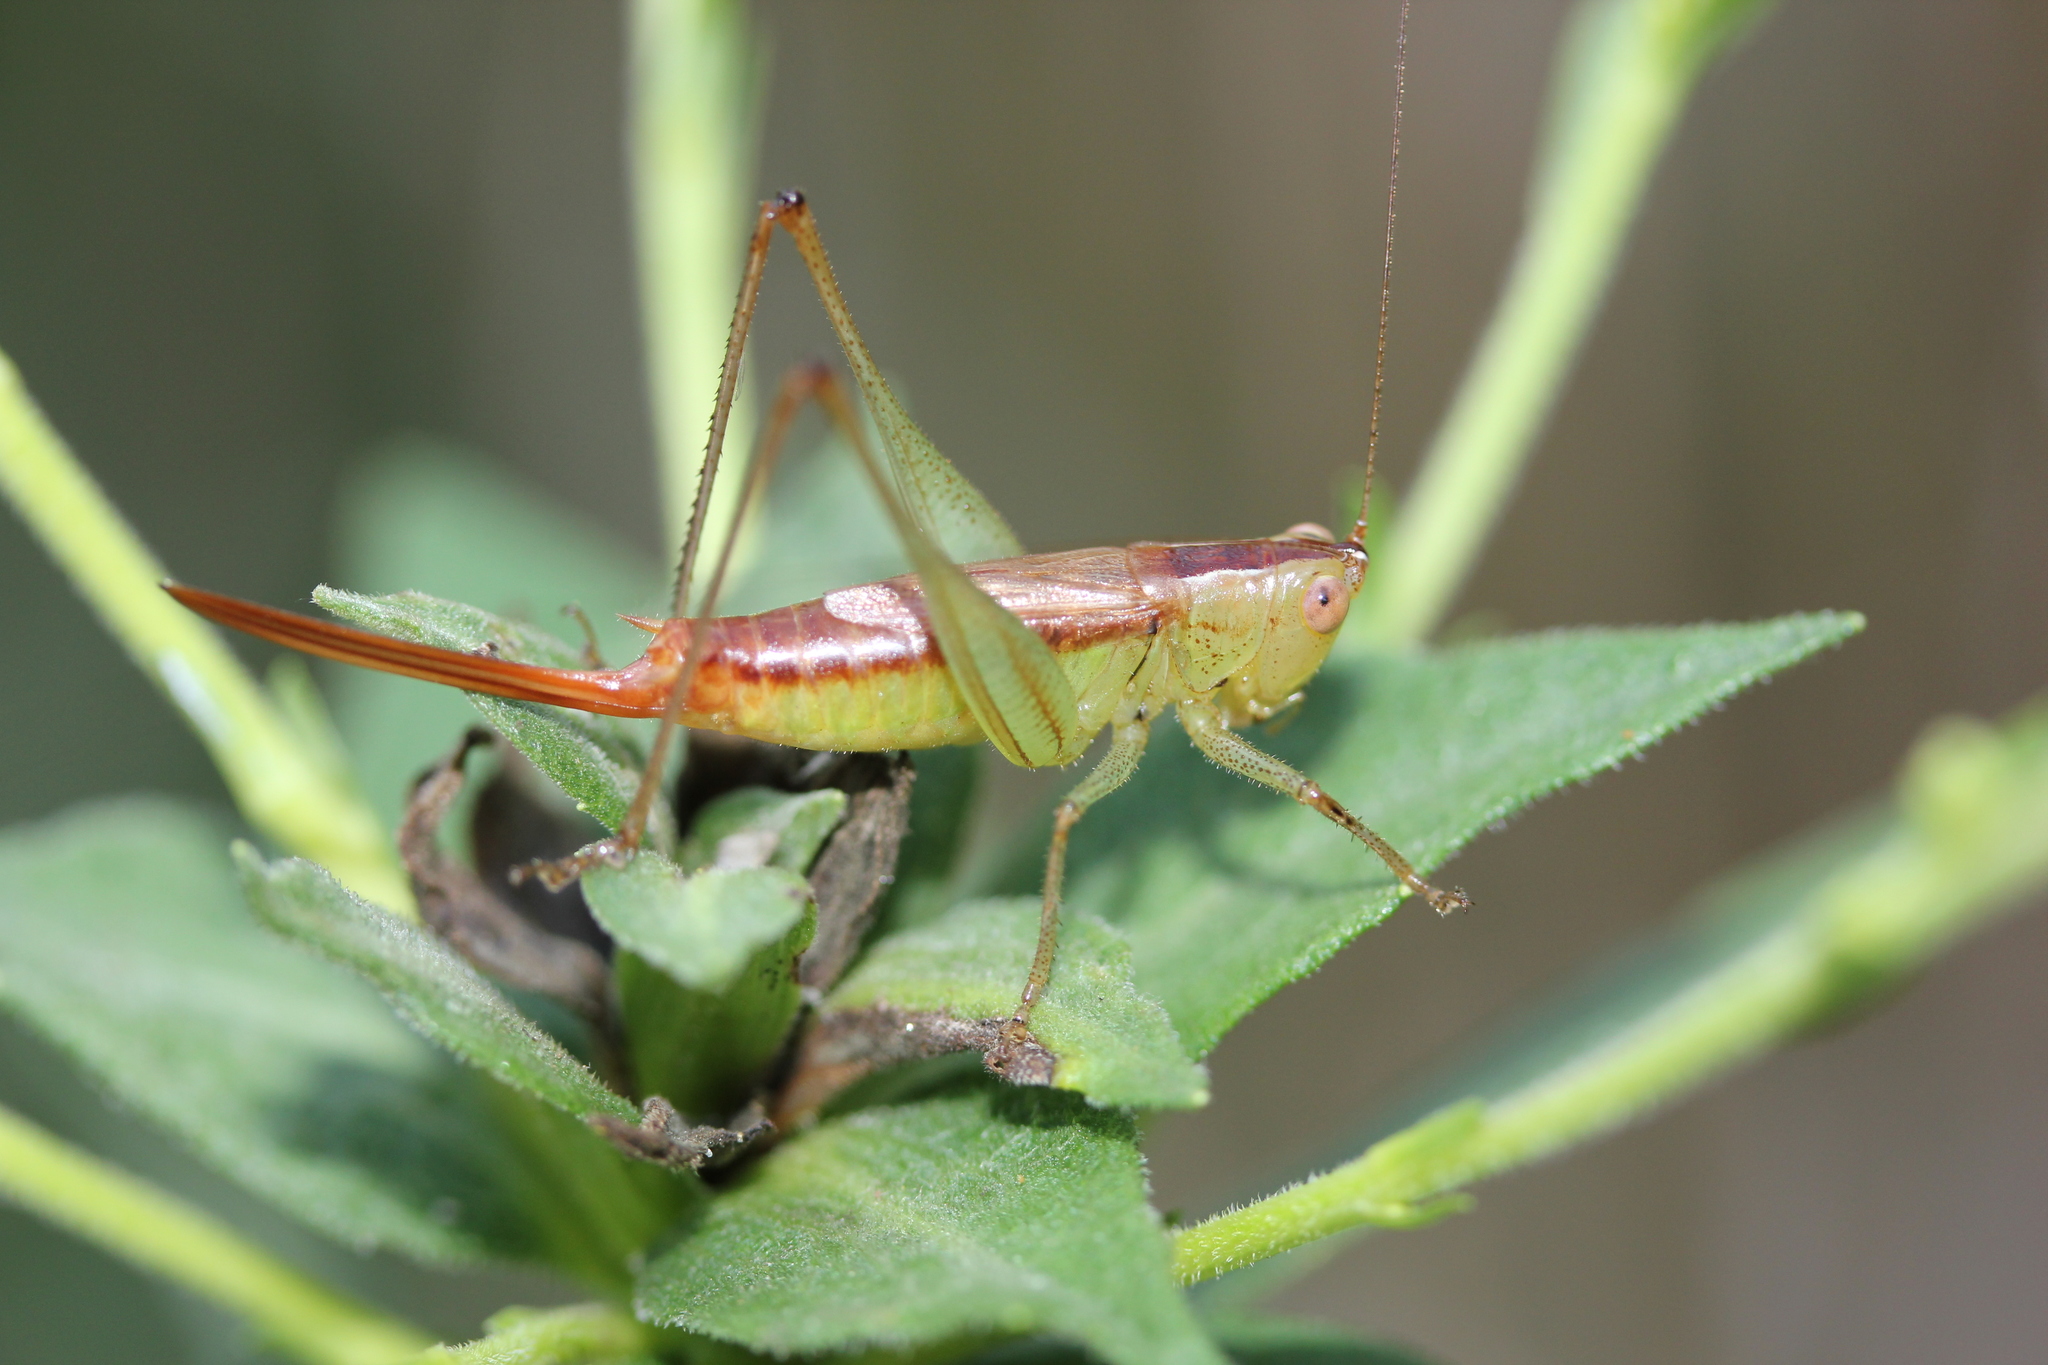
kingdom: Animalia
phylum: Arthropoda
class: Insecta
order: Orthoptera
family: Tettigoniidae
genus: Conocephalus
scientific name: Conocephalus brevipennis
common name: Short-winged meadow katydid
